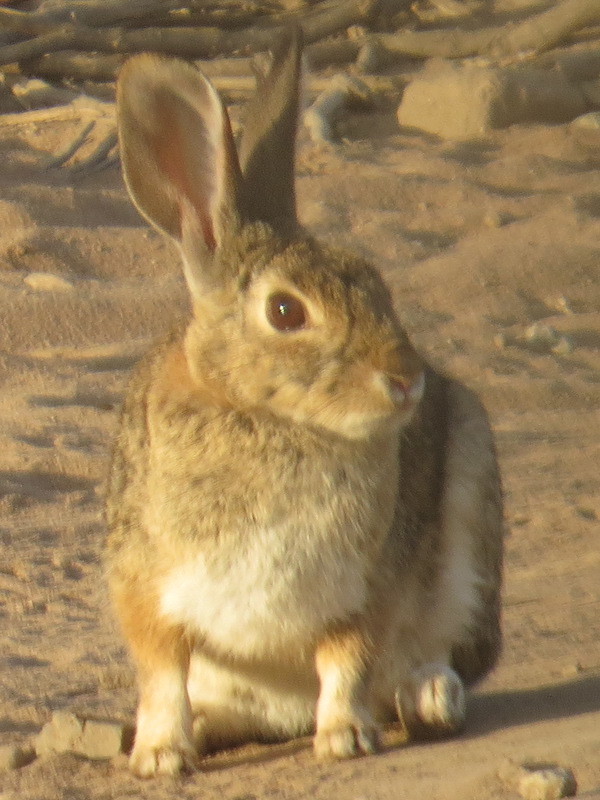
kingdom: Animalia
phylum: Chordata
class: Mammalia
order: Lagomorpha
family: Leporidae
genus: Sylvilagus
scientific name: Sylvilagus audubonii
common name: Desert cottontail
